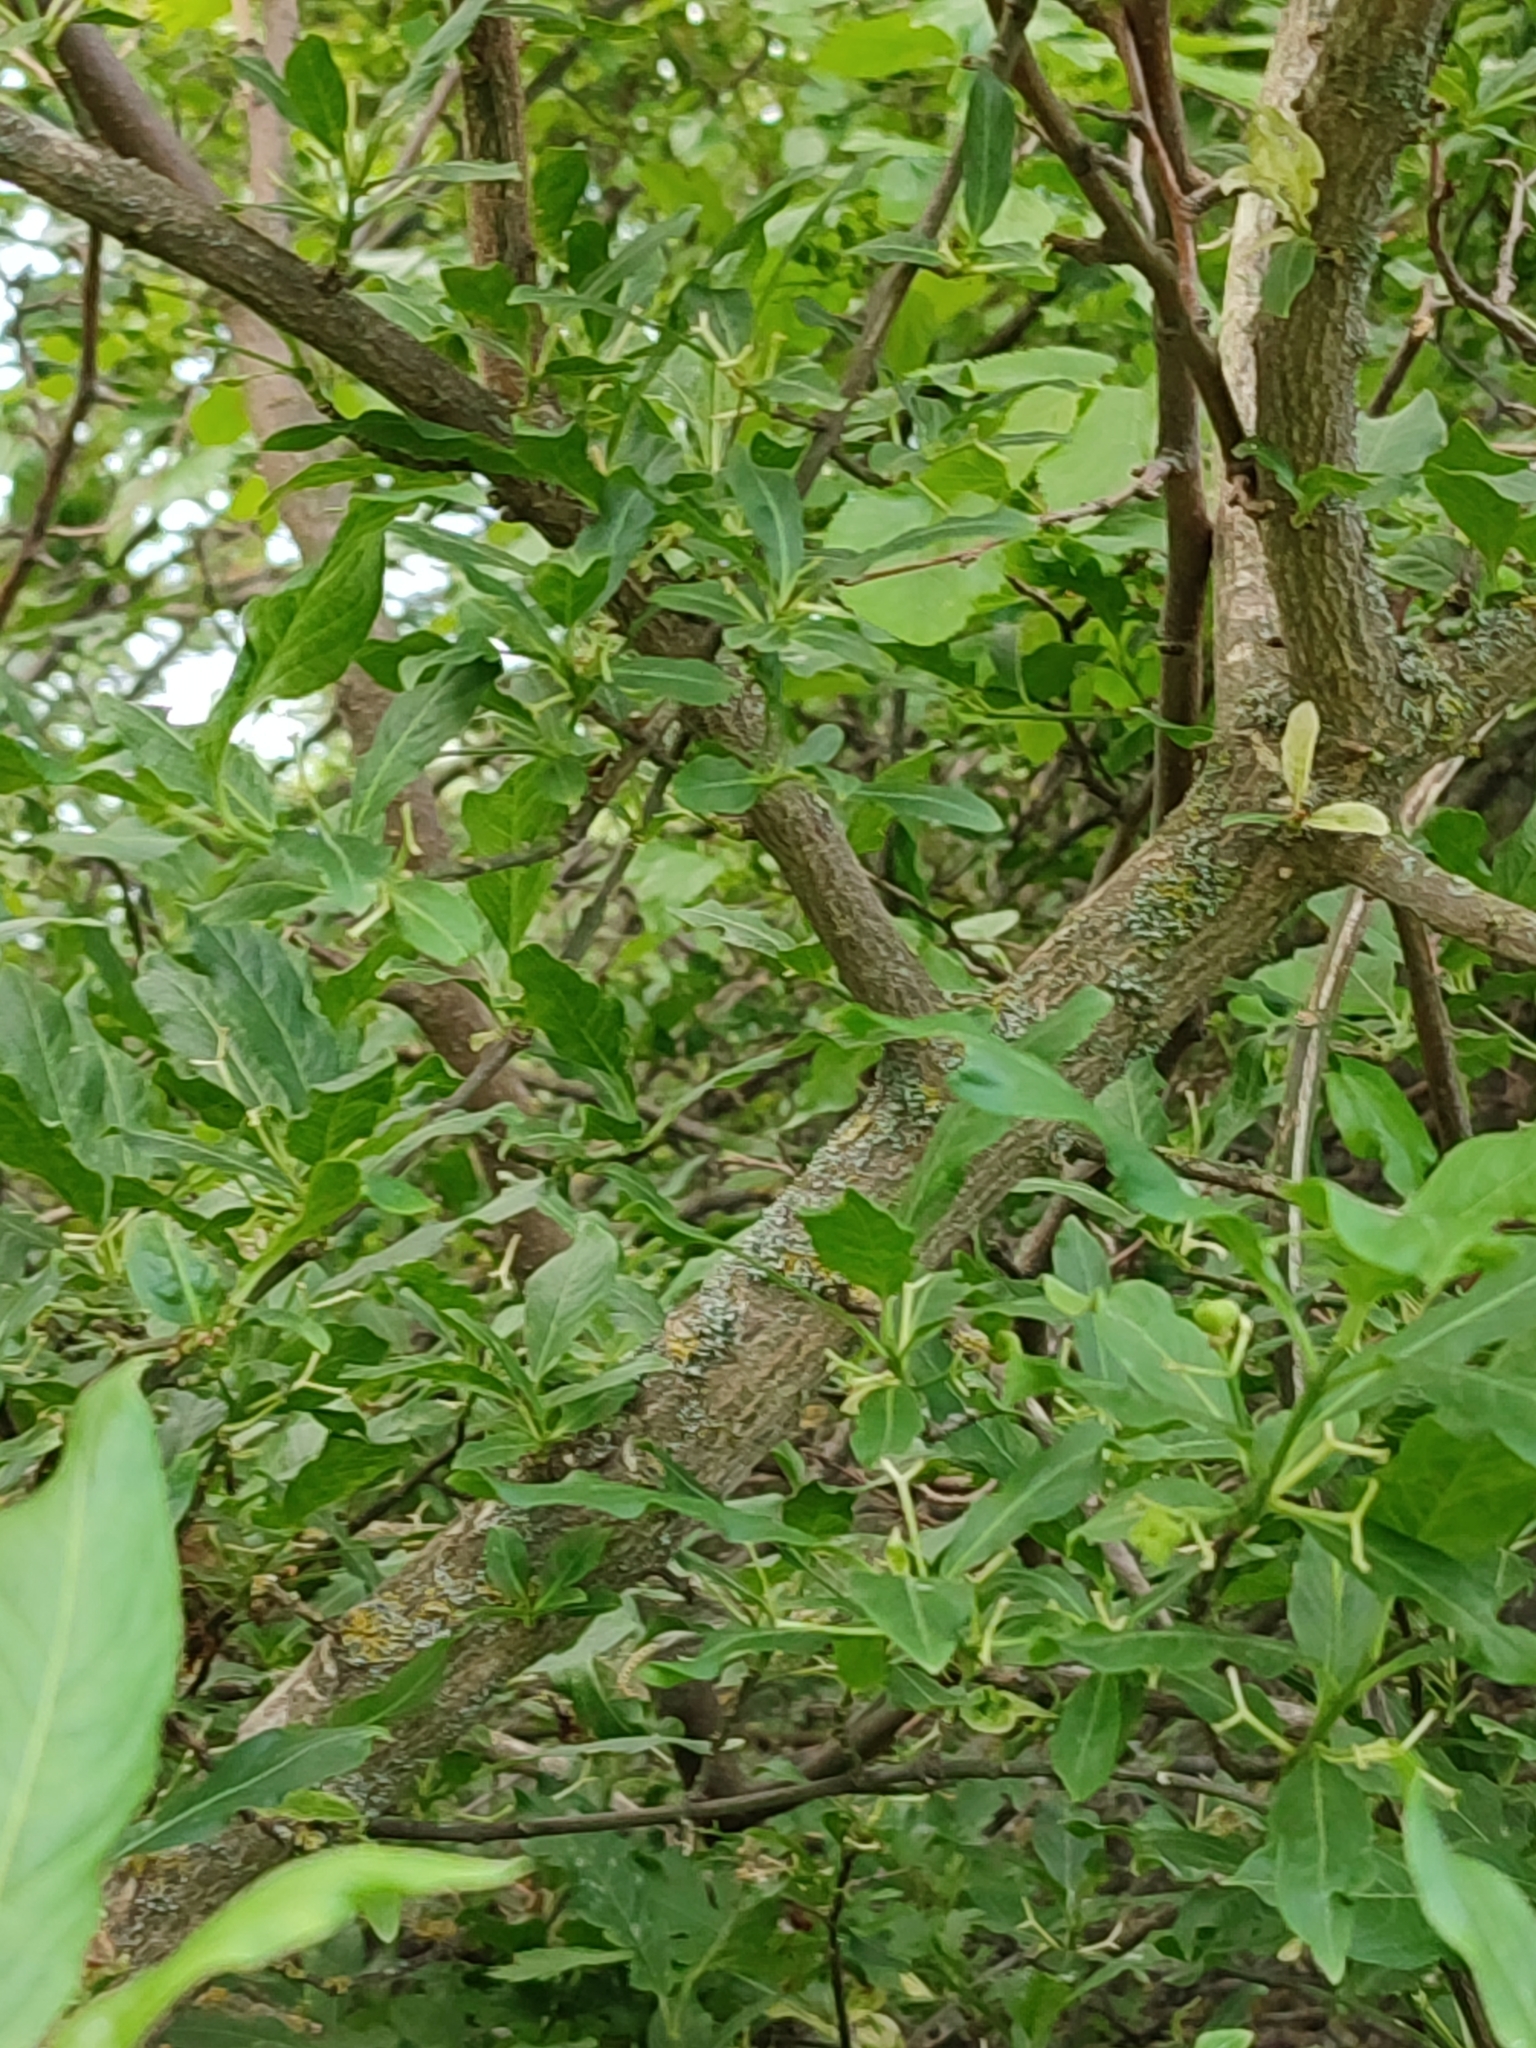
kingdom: Plantae
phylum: Tracheophyta
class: Magnoliopsida
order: Celastrales
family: Celastraceae
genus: Euonymus
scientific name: Euonymus europaeus
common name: Spindle
